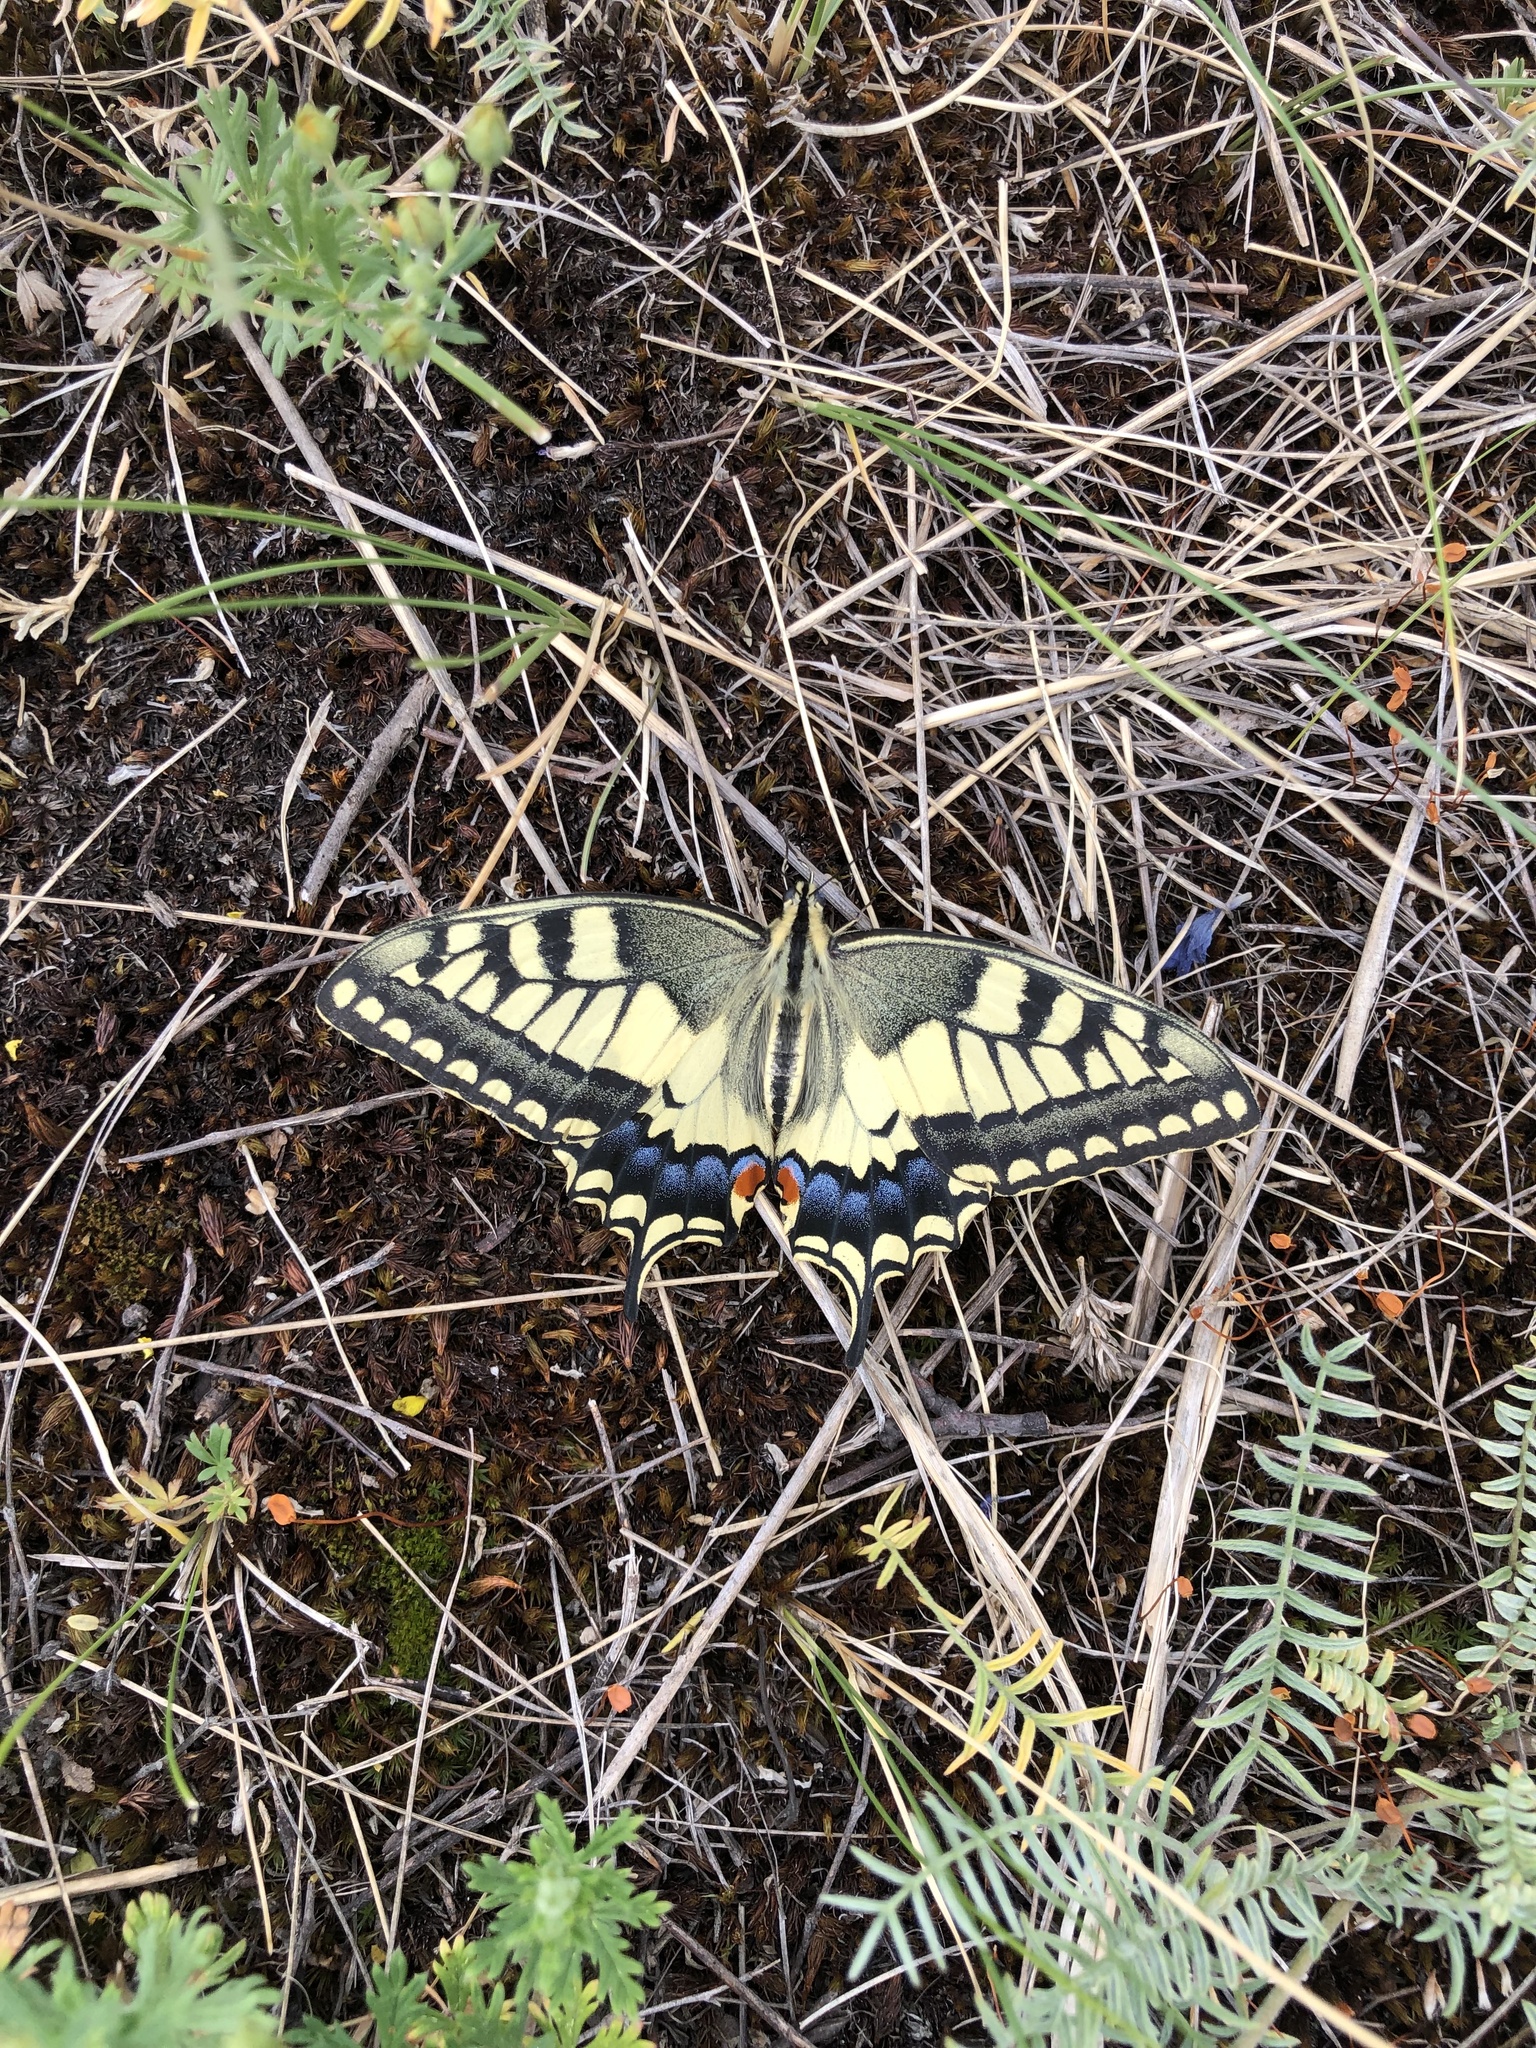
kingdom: Animalia
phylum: Arthropoda
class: Insecta
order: Lepidoptera
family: Papilionidae
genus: Papilio
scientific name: Papilio machaon
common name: Swallowtail
